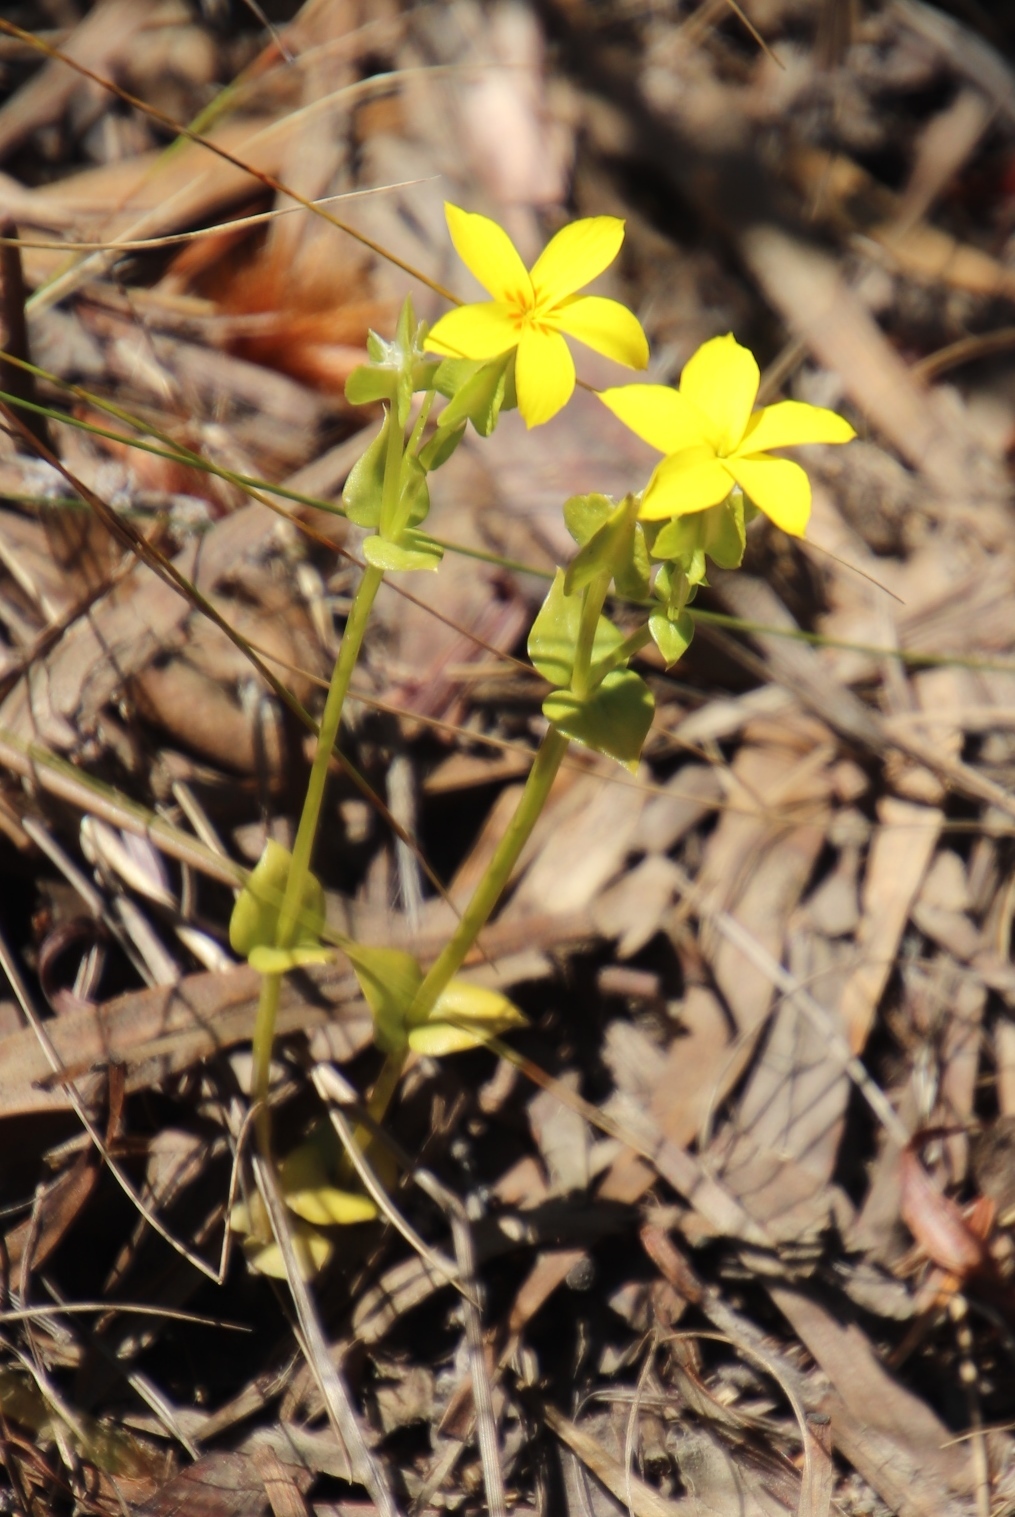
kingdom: Plantae
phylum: Tracheophyta
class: Magnoliopsida
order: Gentianales
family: Gentianaceae
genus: Sebaea
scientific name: Sebaea exacoides
